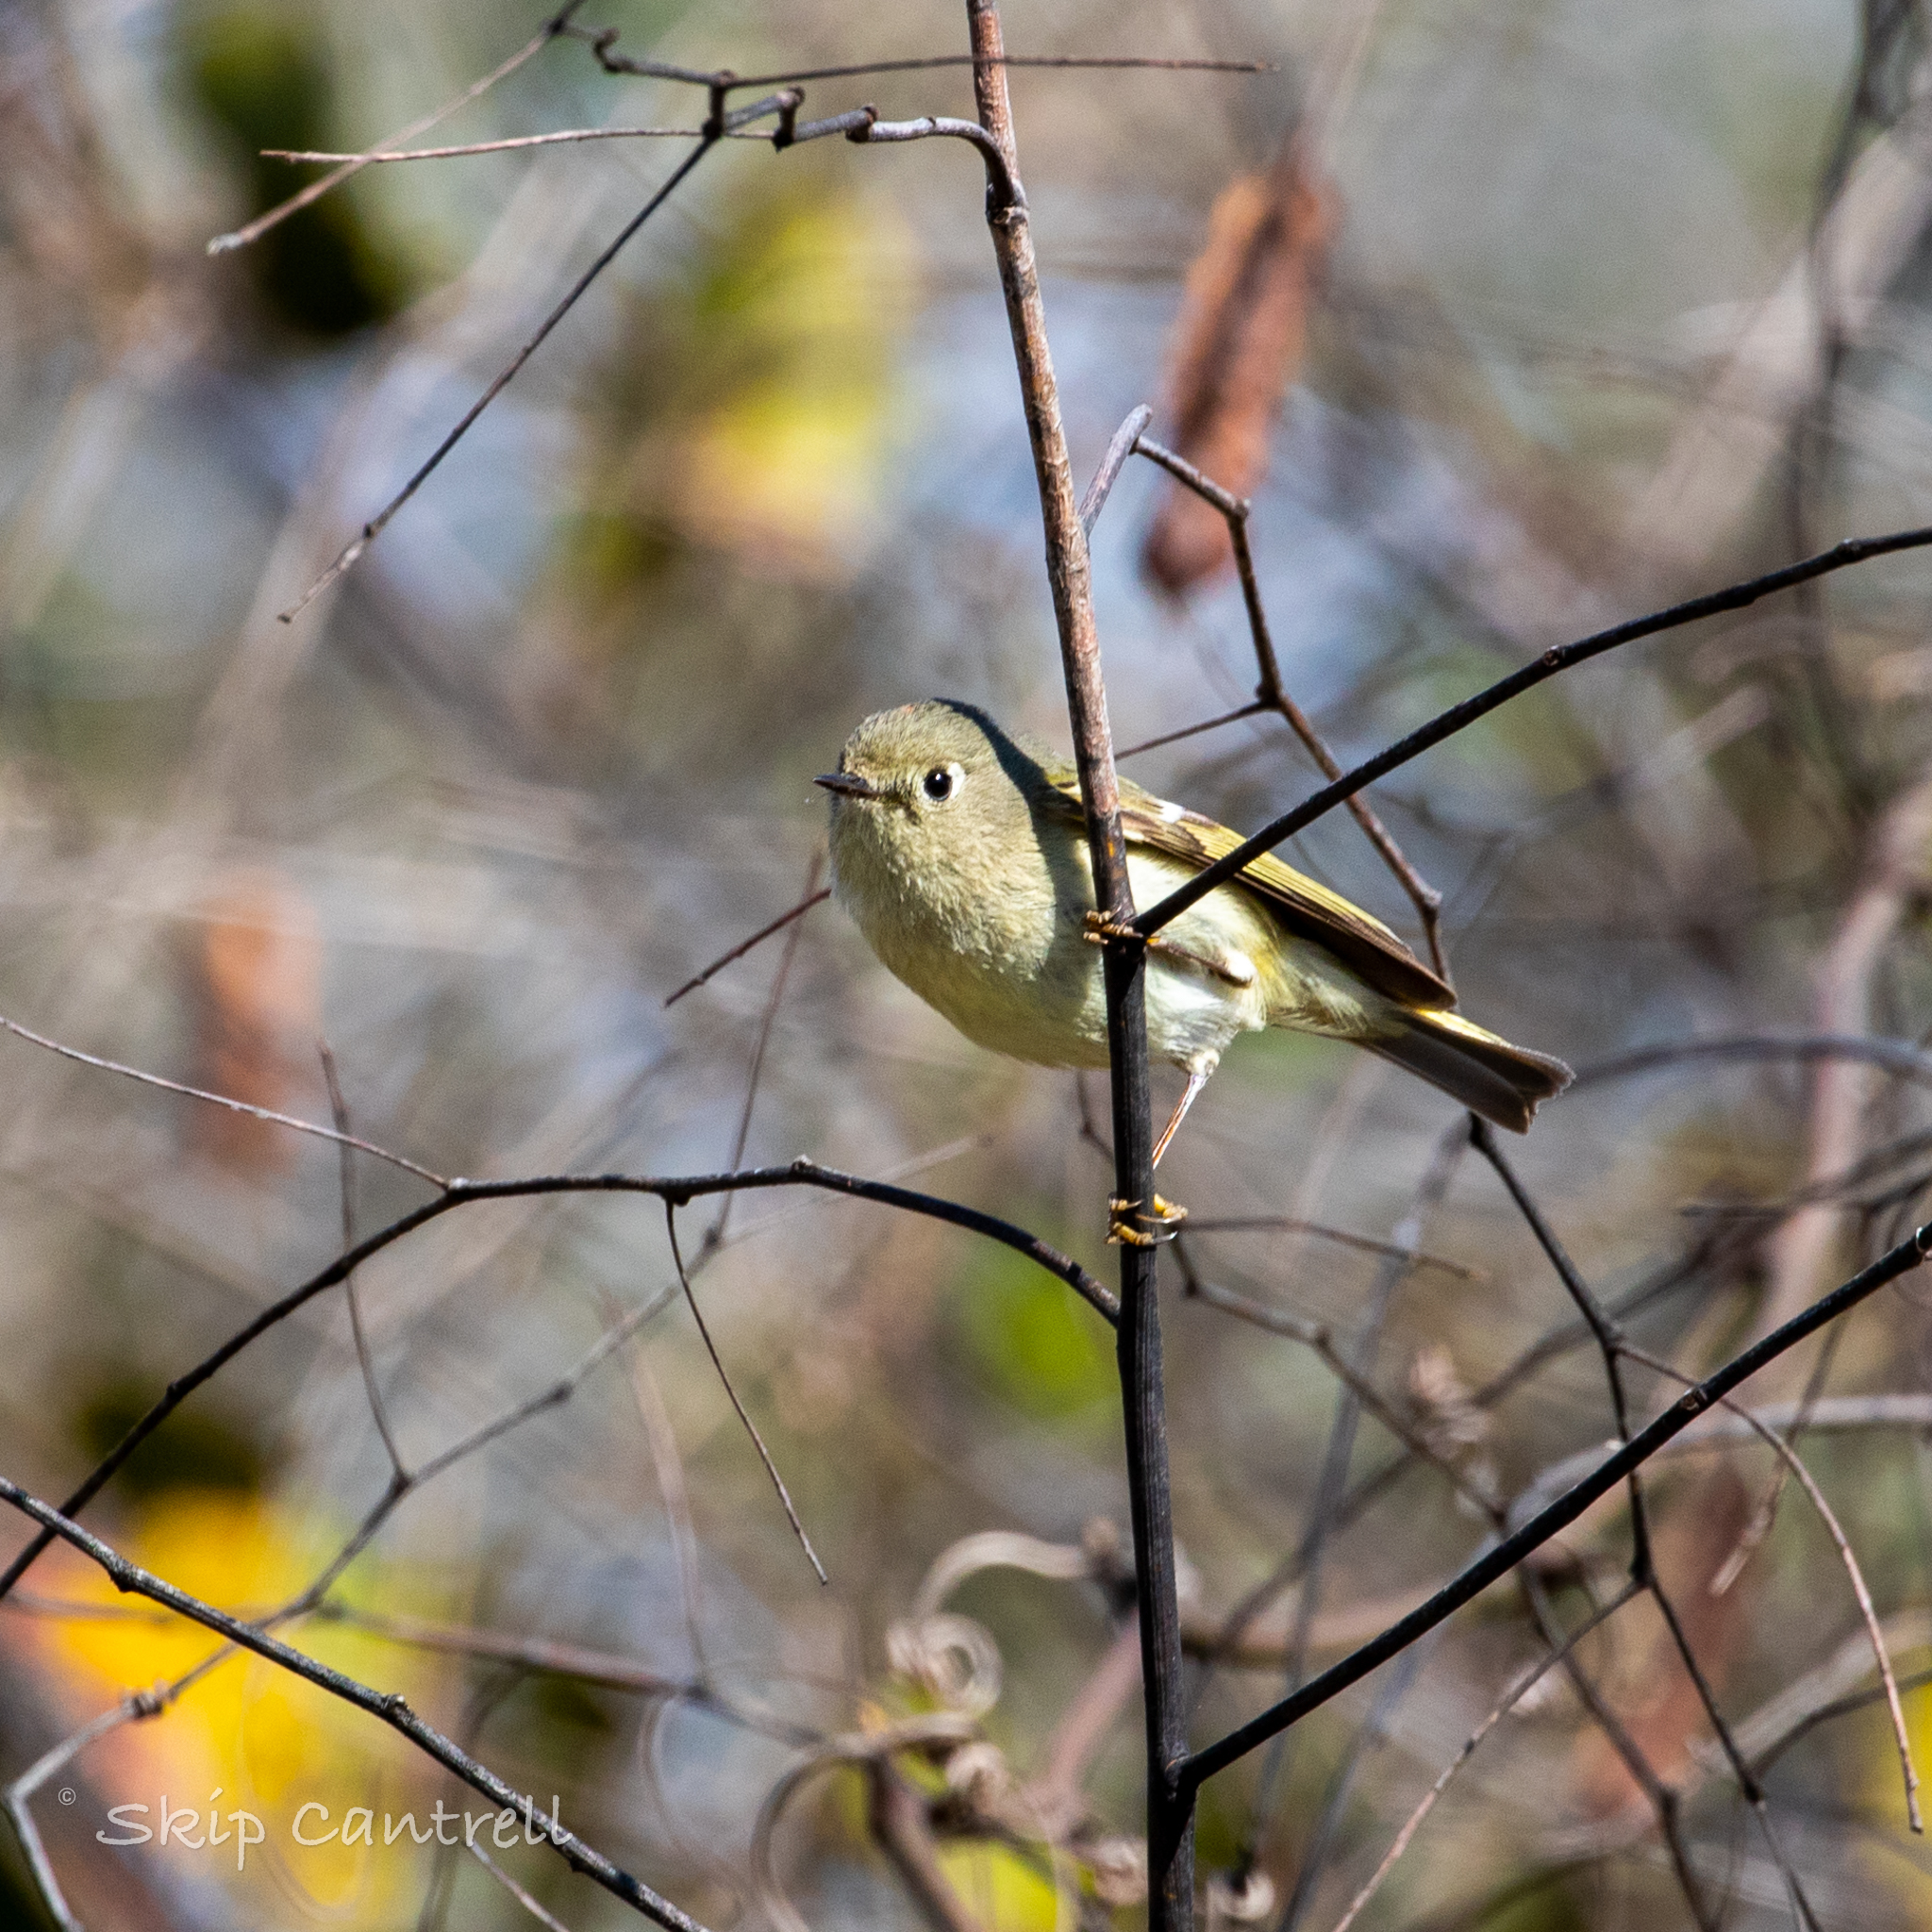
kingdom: Animalia
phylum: Chordata
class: Aves
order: Passeriformes
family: Regulidae
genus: Regulus
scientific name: Regulus calendula
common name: Ruby-crowned kinglet
